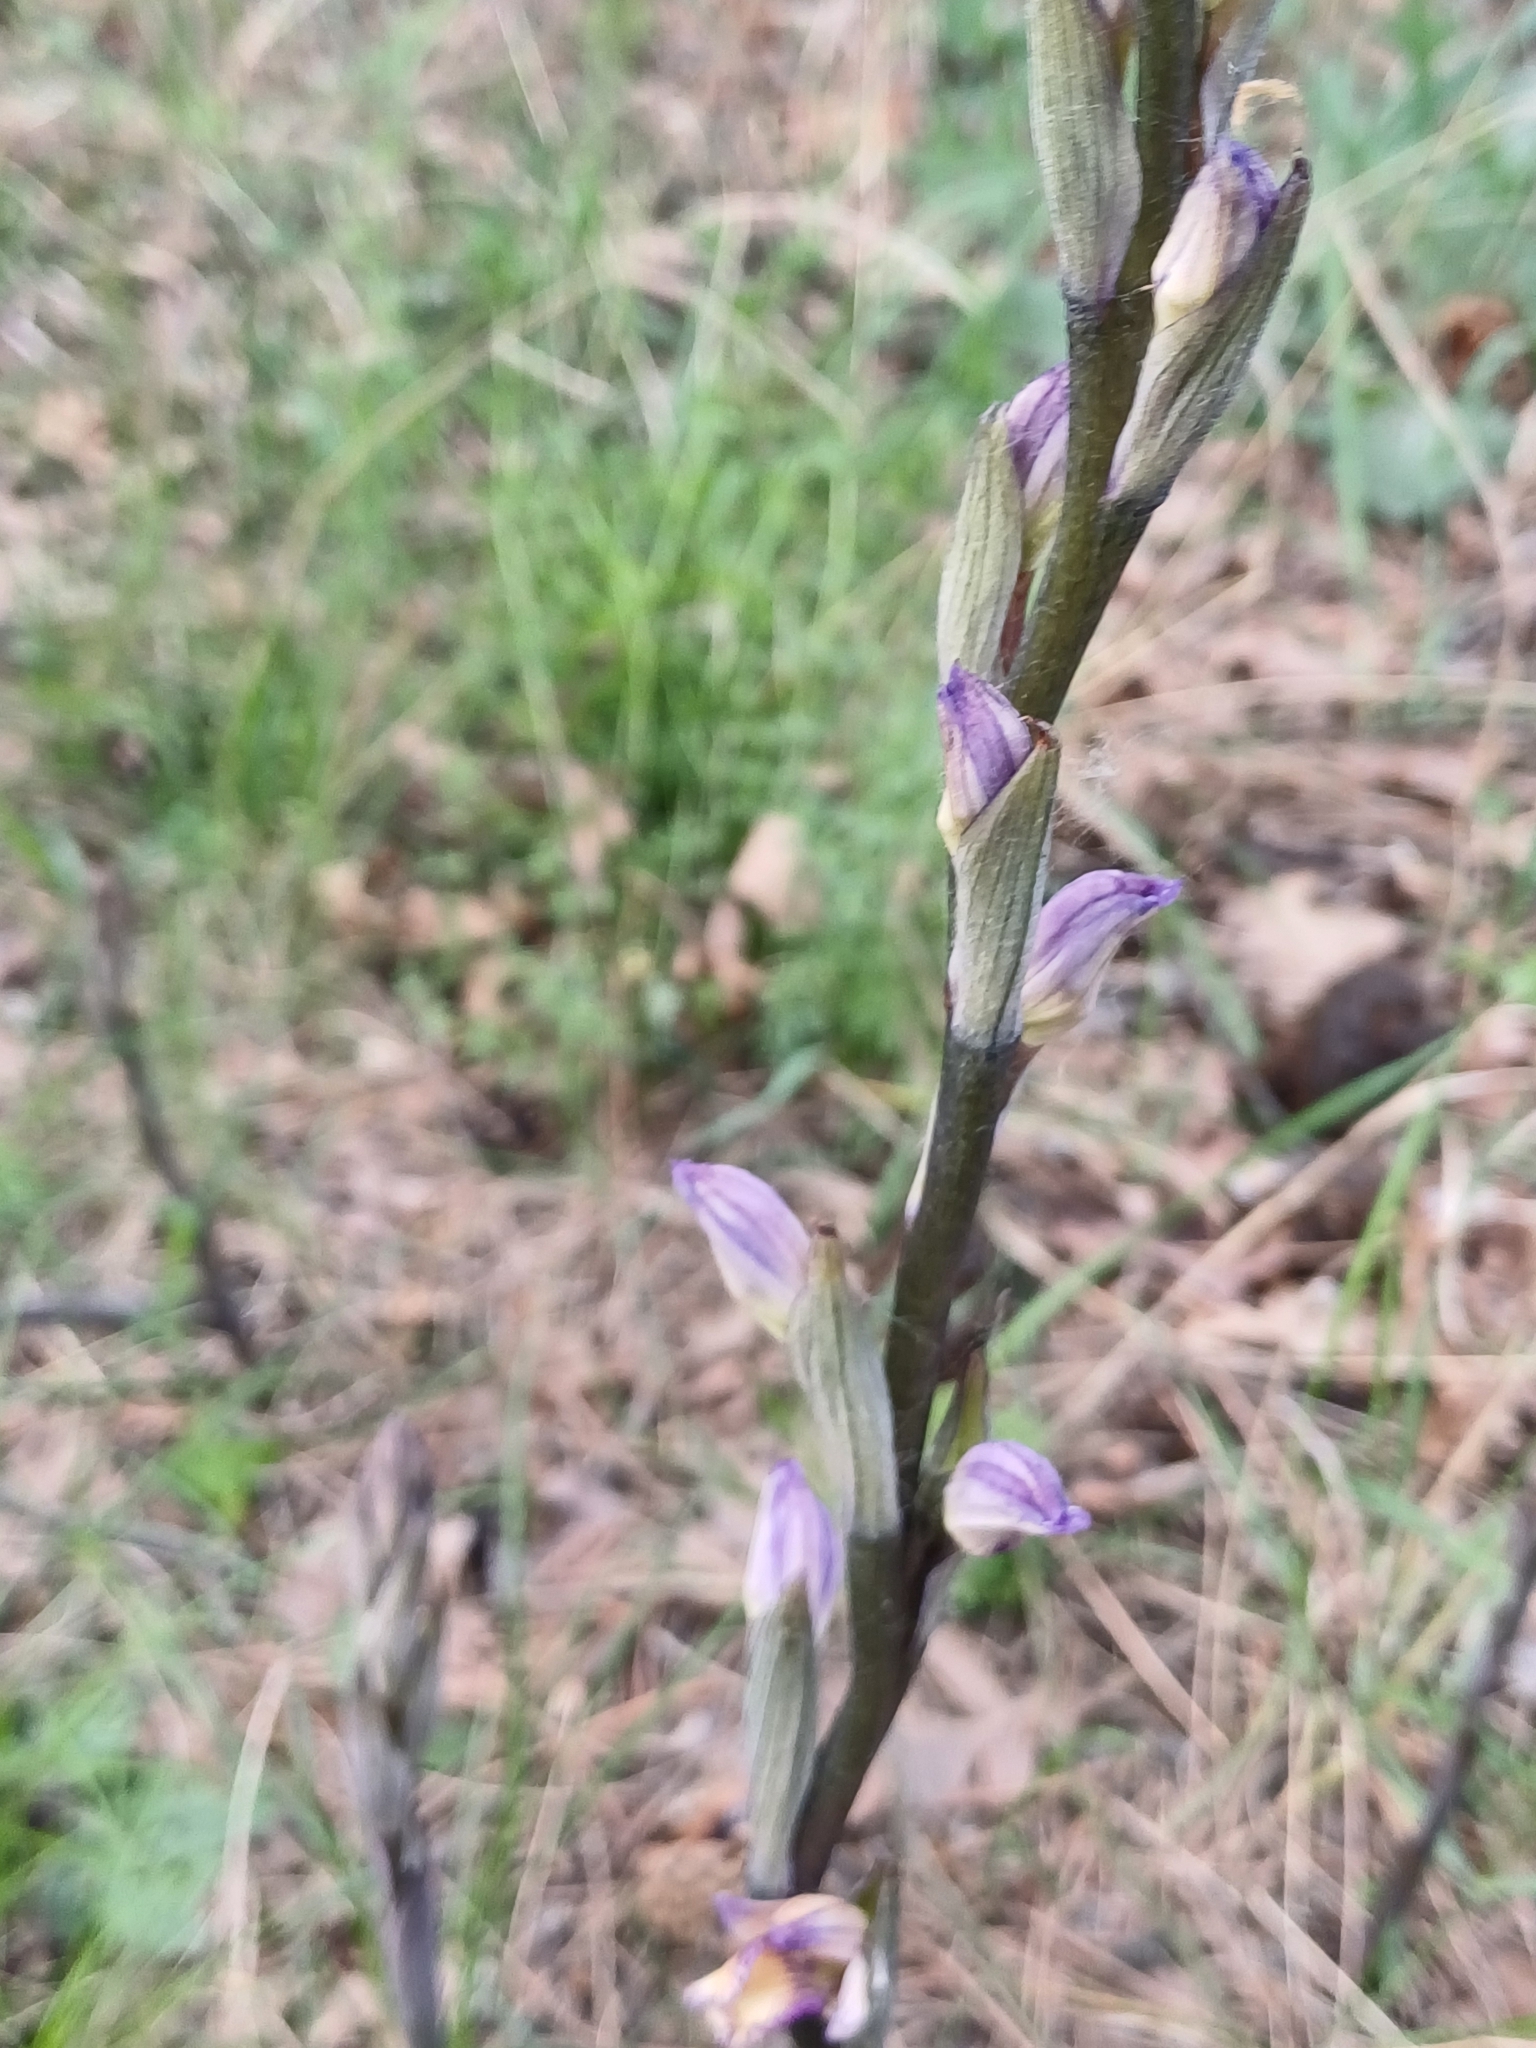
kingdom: Plantae
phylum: Tracheophyta
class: Liliopsida
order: Asparagales
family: Orchidaceae
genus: Limodorum
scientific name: Limodorum abortivum
